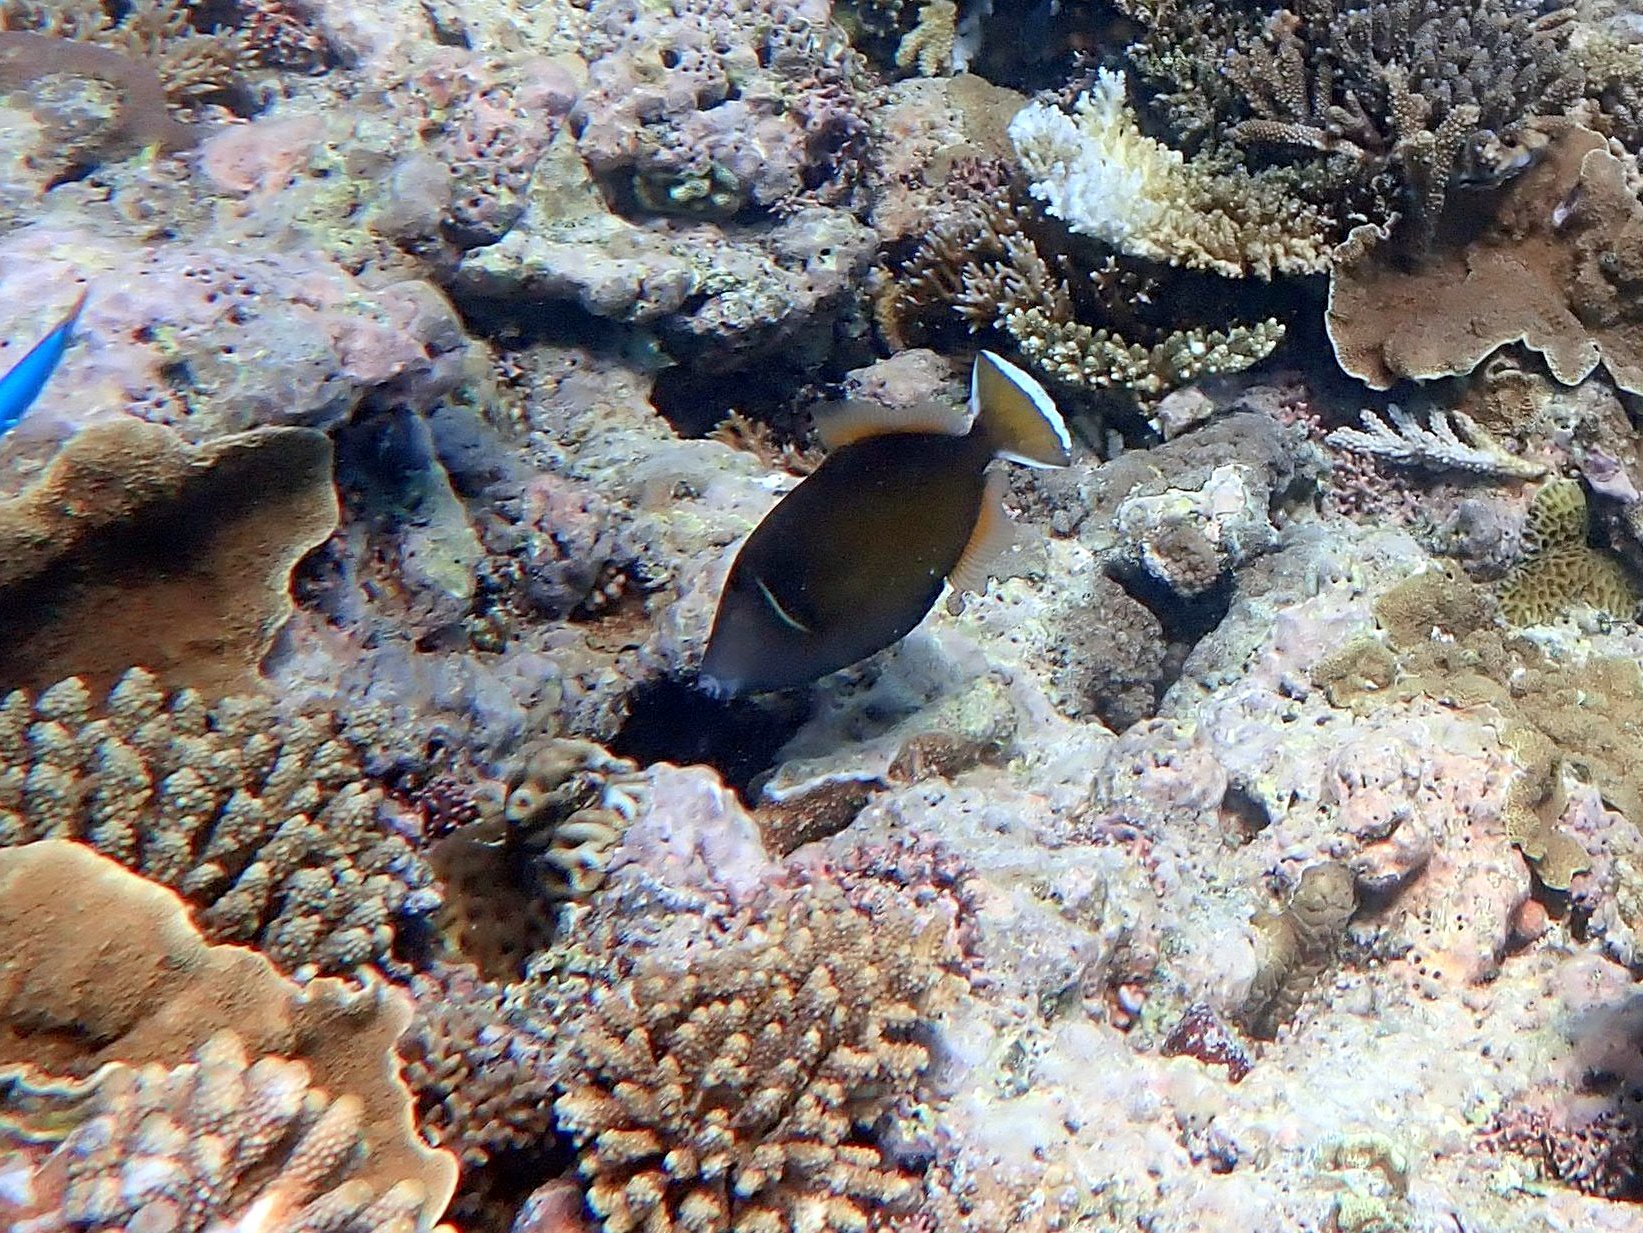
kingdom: Animalia
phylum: Chordata
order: Tetraodontiformes
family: Balistidae
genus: Sufflamen
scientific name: Sufflamen chrysopterum
